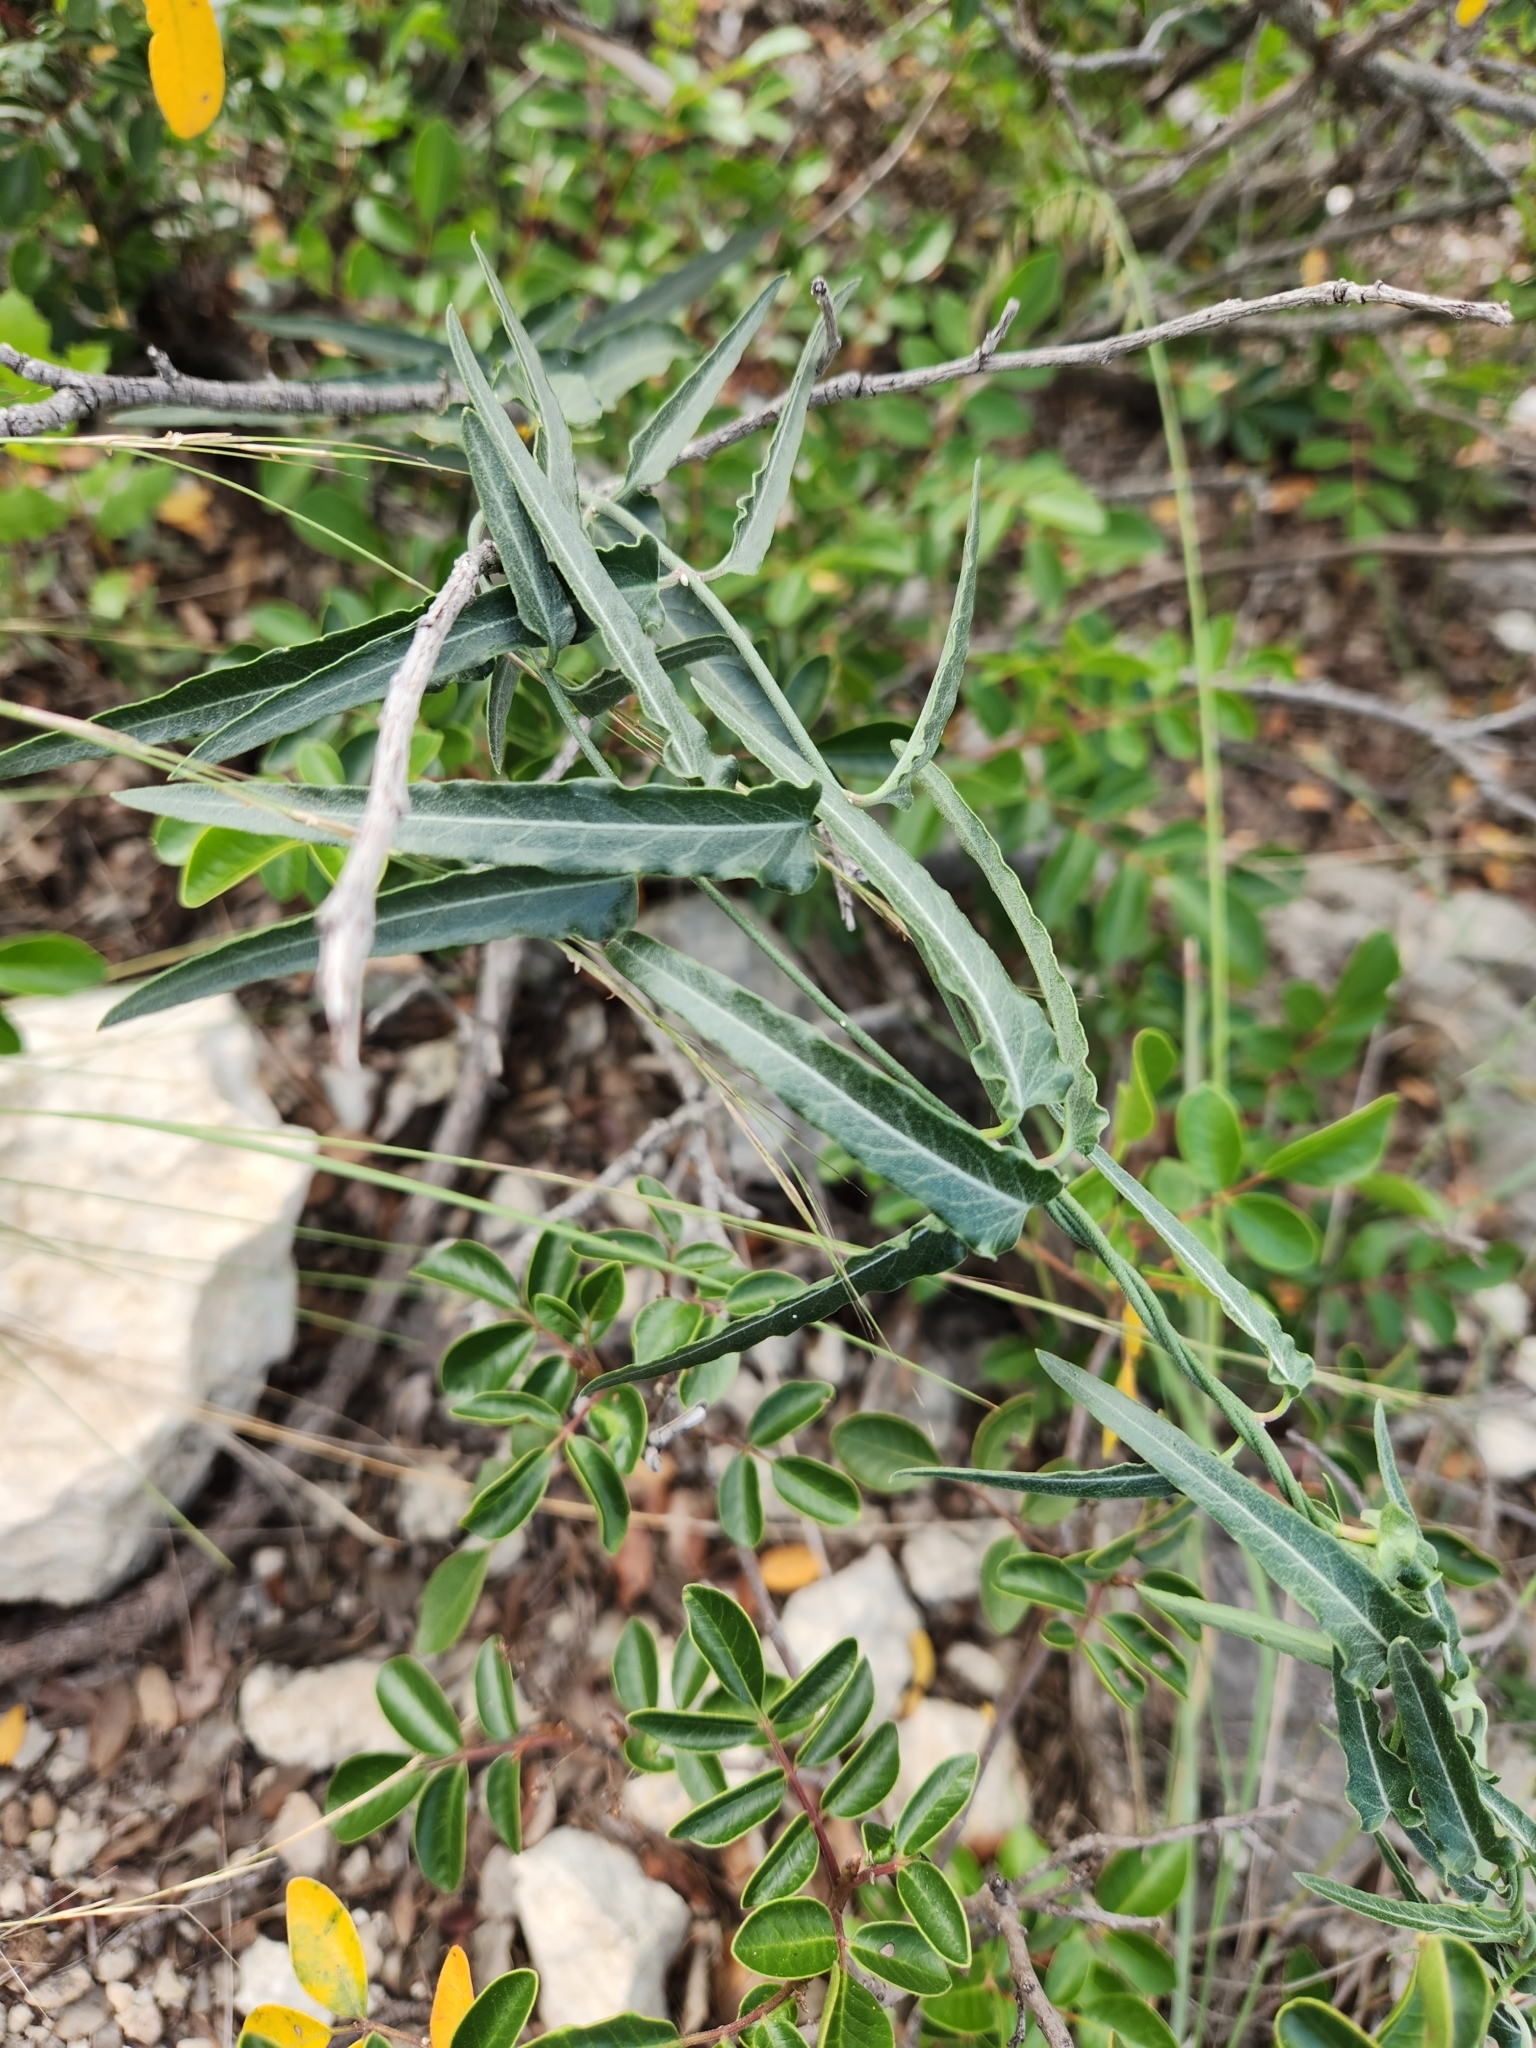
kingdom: Plantae
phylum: Tracheophyta
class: Magnoliopsida
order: Gentianales
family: Apocynaceae
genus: Funastrum
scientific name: Funastrum crispum
